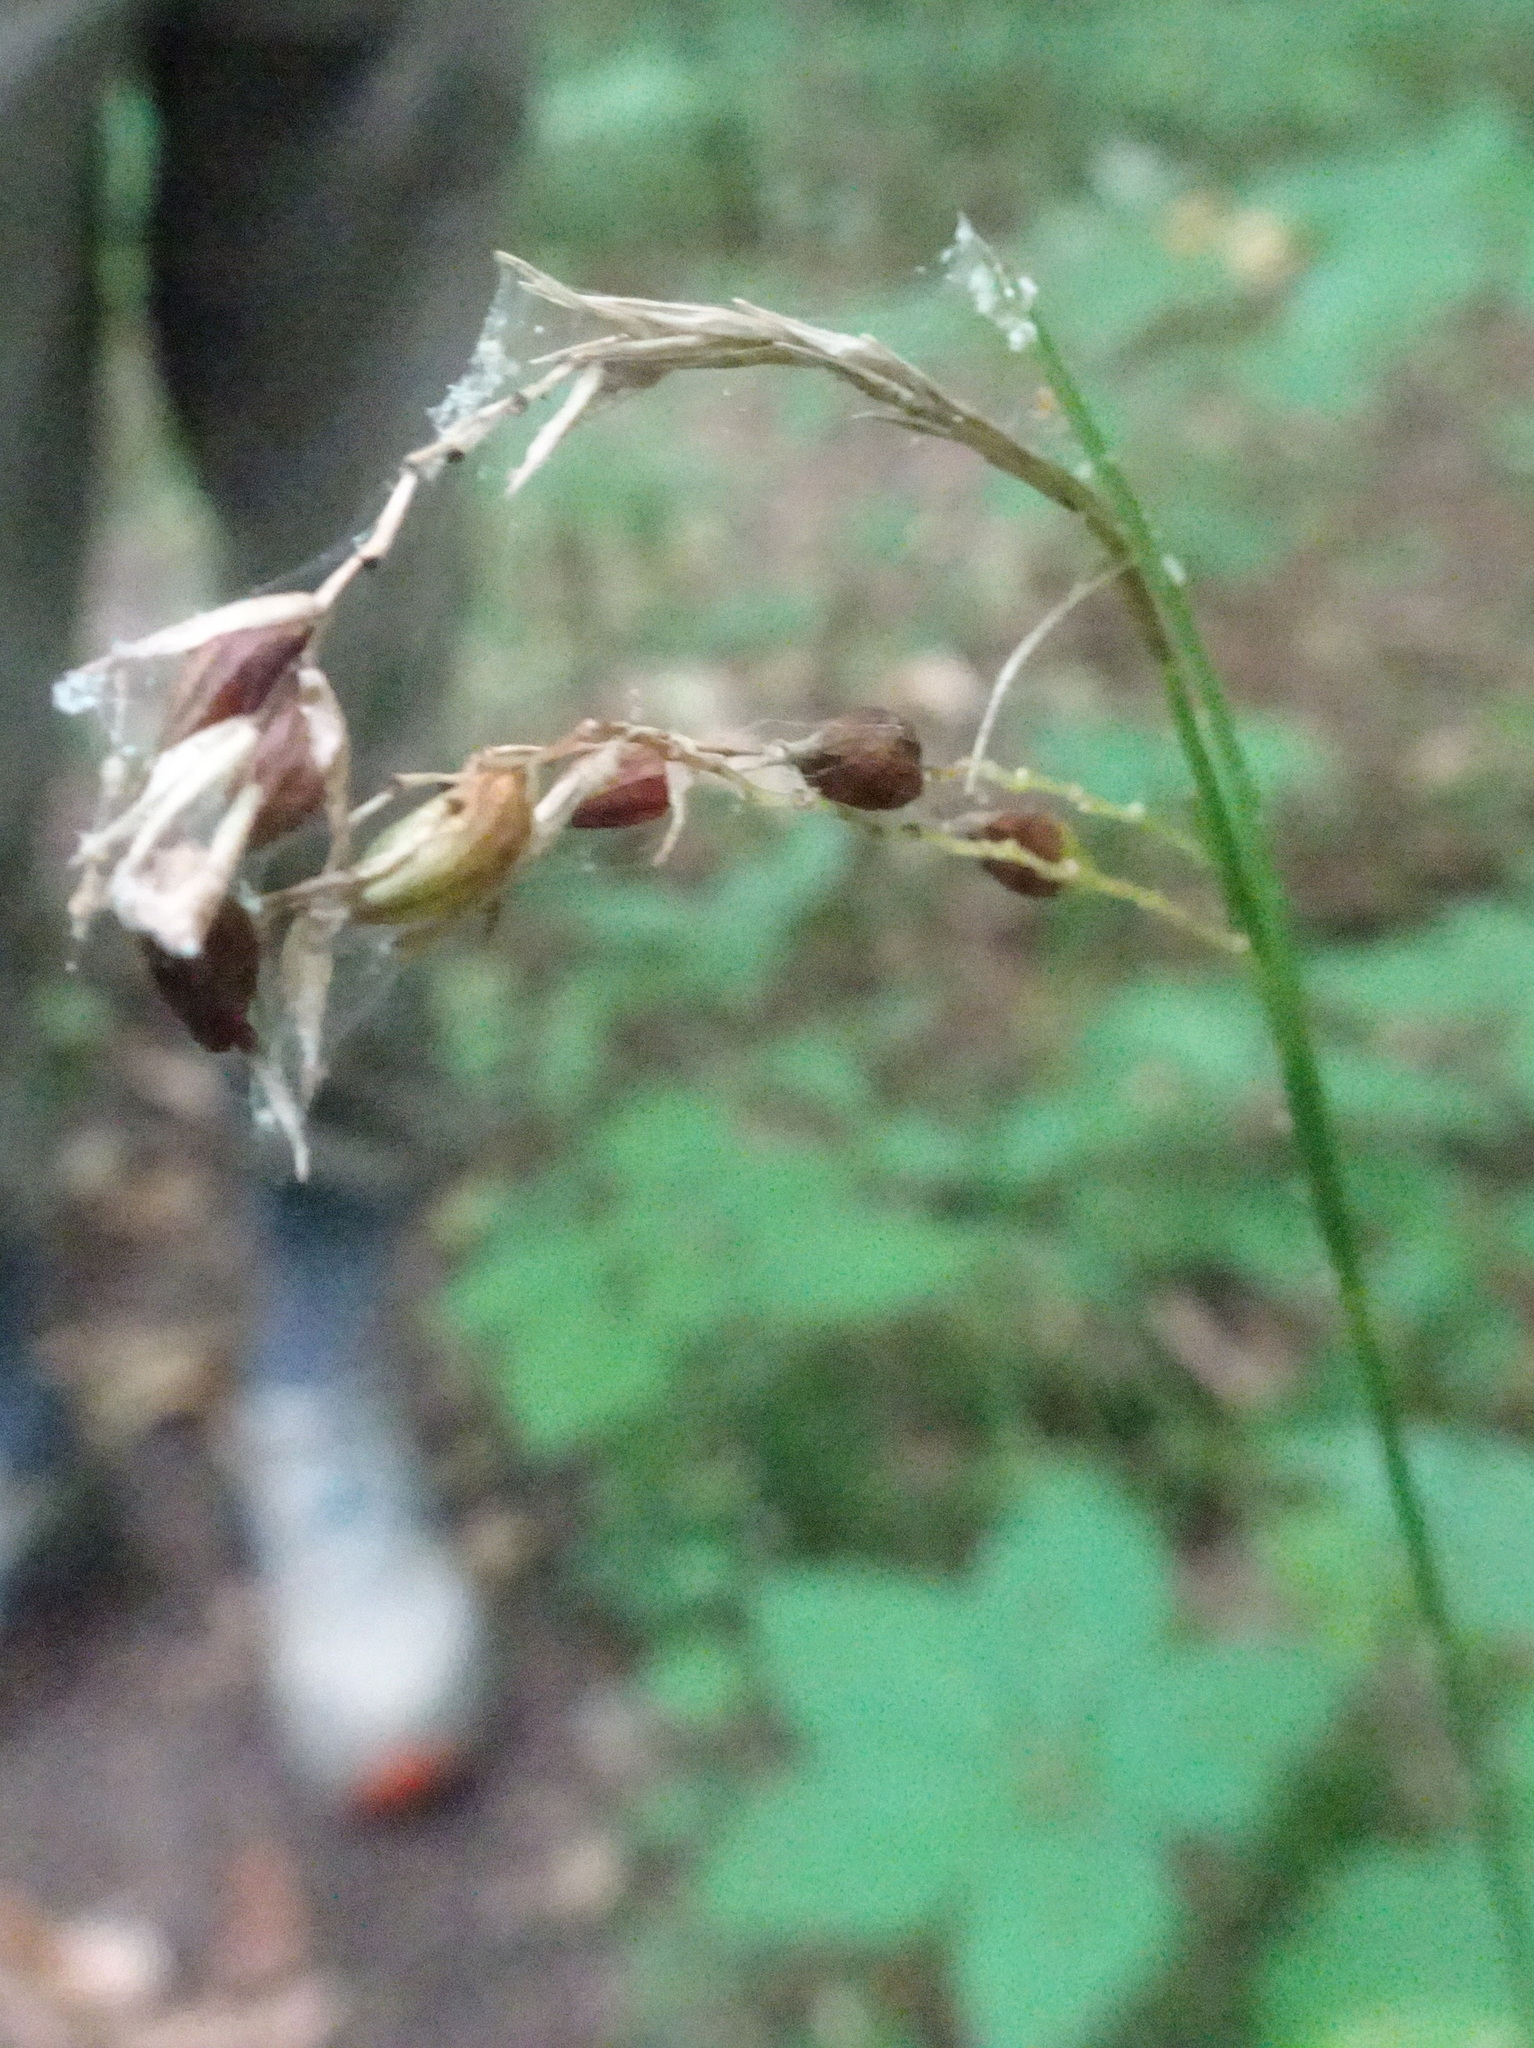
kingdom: Plantae
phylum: Tracheophyta
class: Liliopsida
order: Poales
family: Cyperaceae
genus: Carex
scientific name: Carex davisii
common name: Davis' sedge
